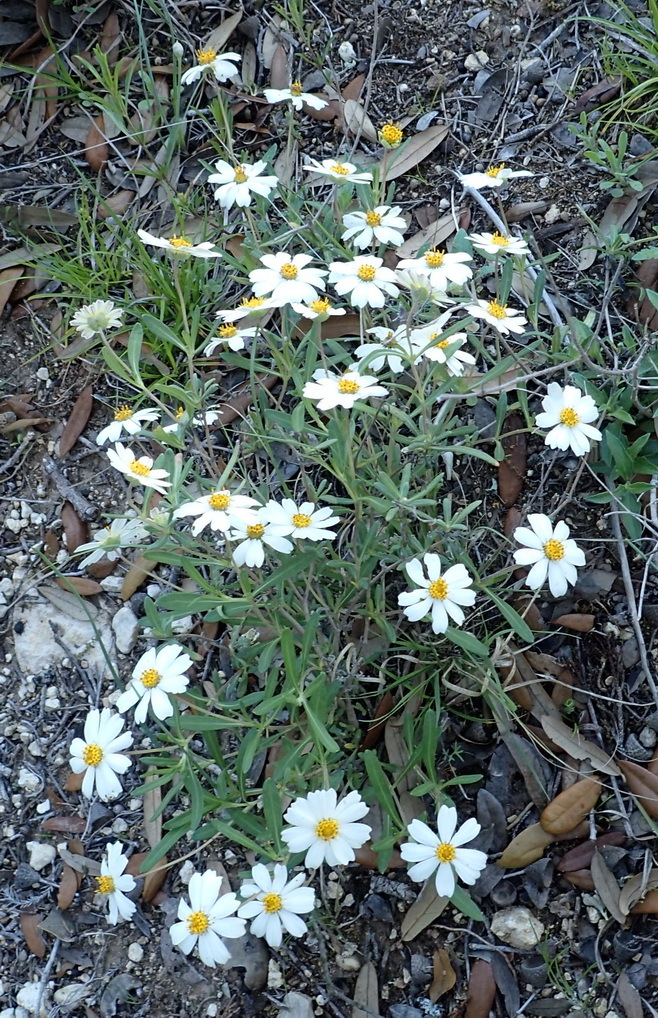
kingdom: Plantae
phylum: Tracheophyta
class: Magnoliopsida
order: Asterales
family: Asteraceae
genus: Melampodium
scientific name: Melampodium leucanthum
